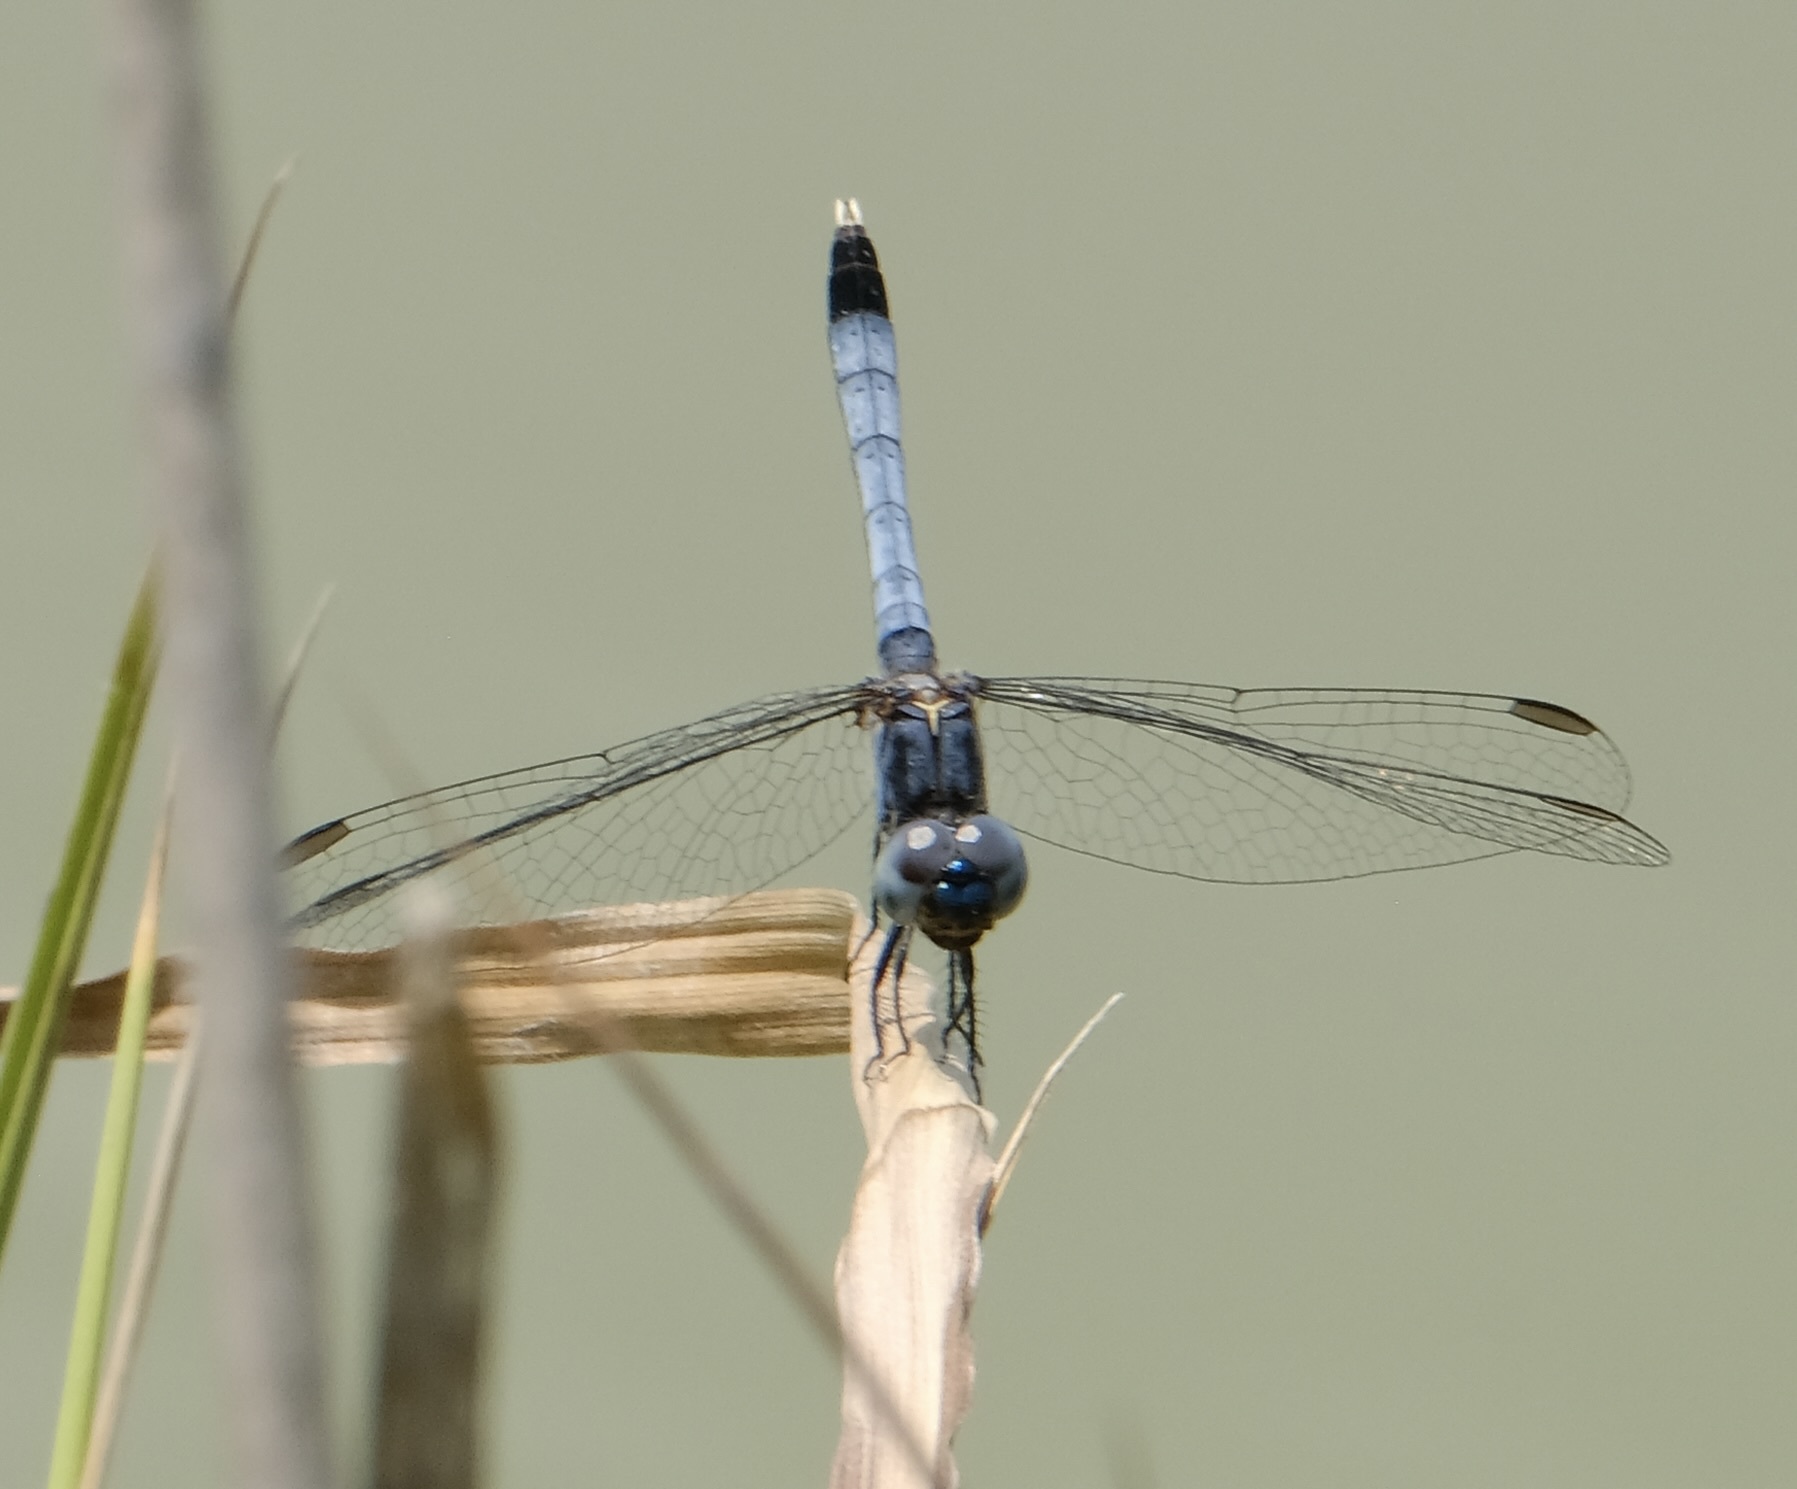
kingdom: Animalia
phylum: Arthropoda
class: Insecta
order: Odonata
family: Libellulidae
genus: Erythrodiplax
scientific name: Erythrodiplax minuscula
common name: Little blue dragonlet
